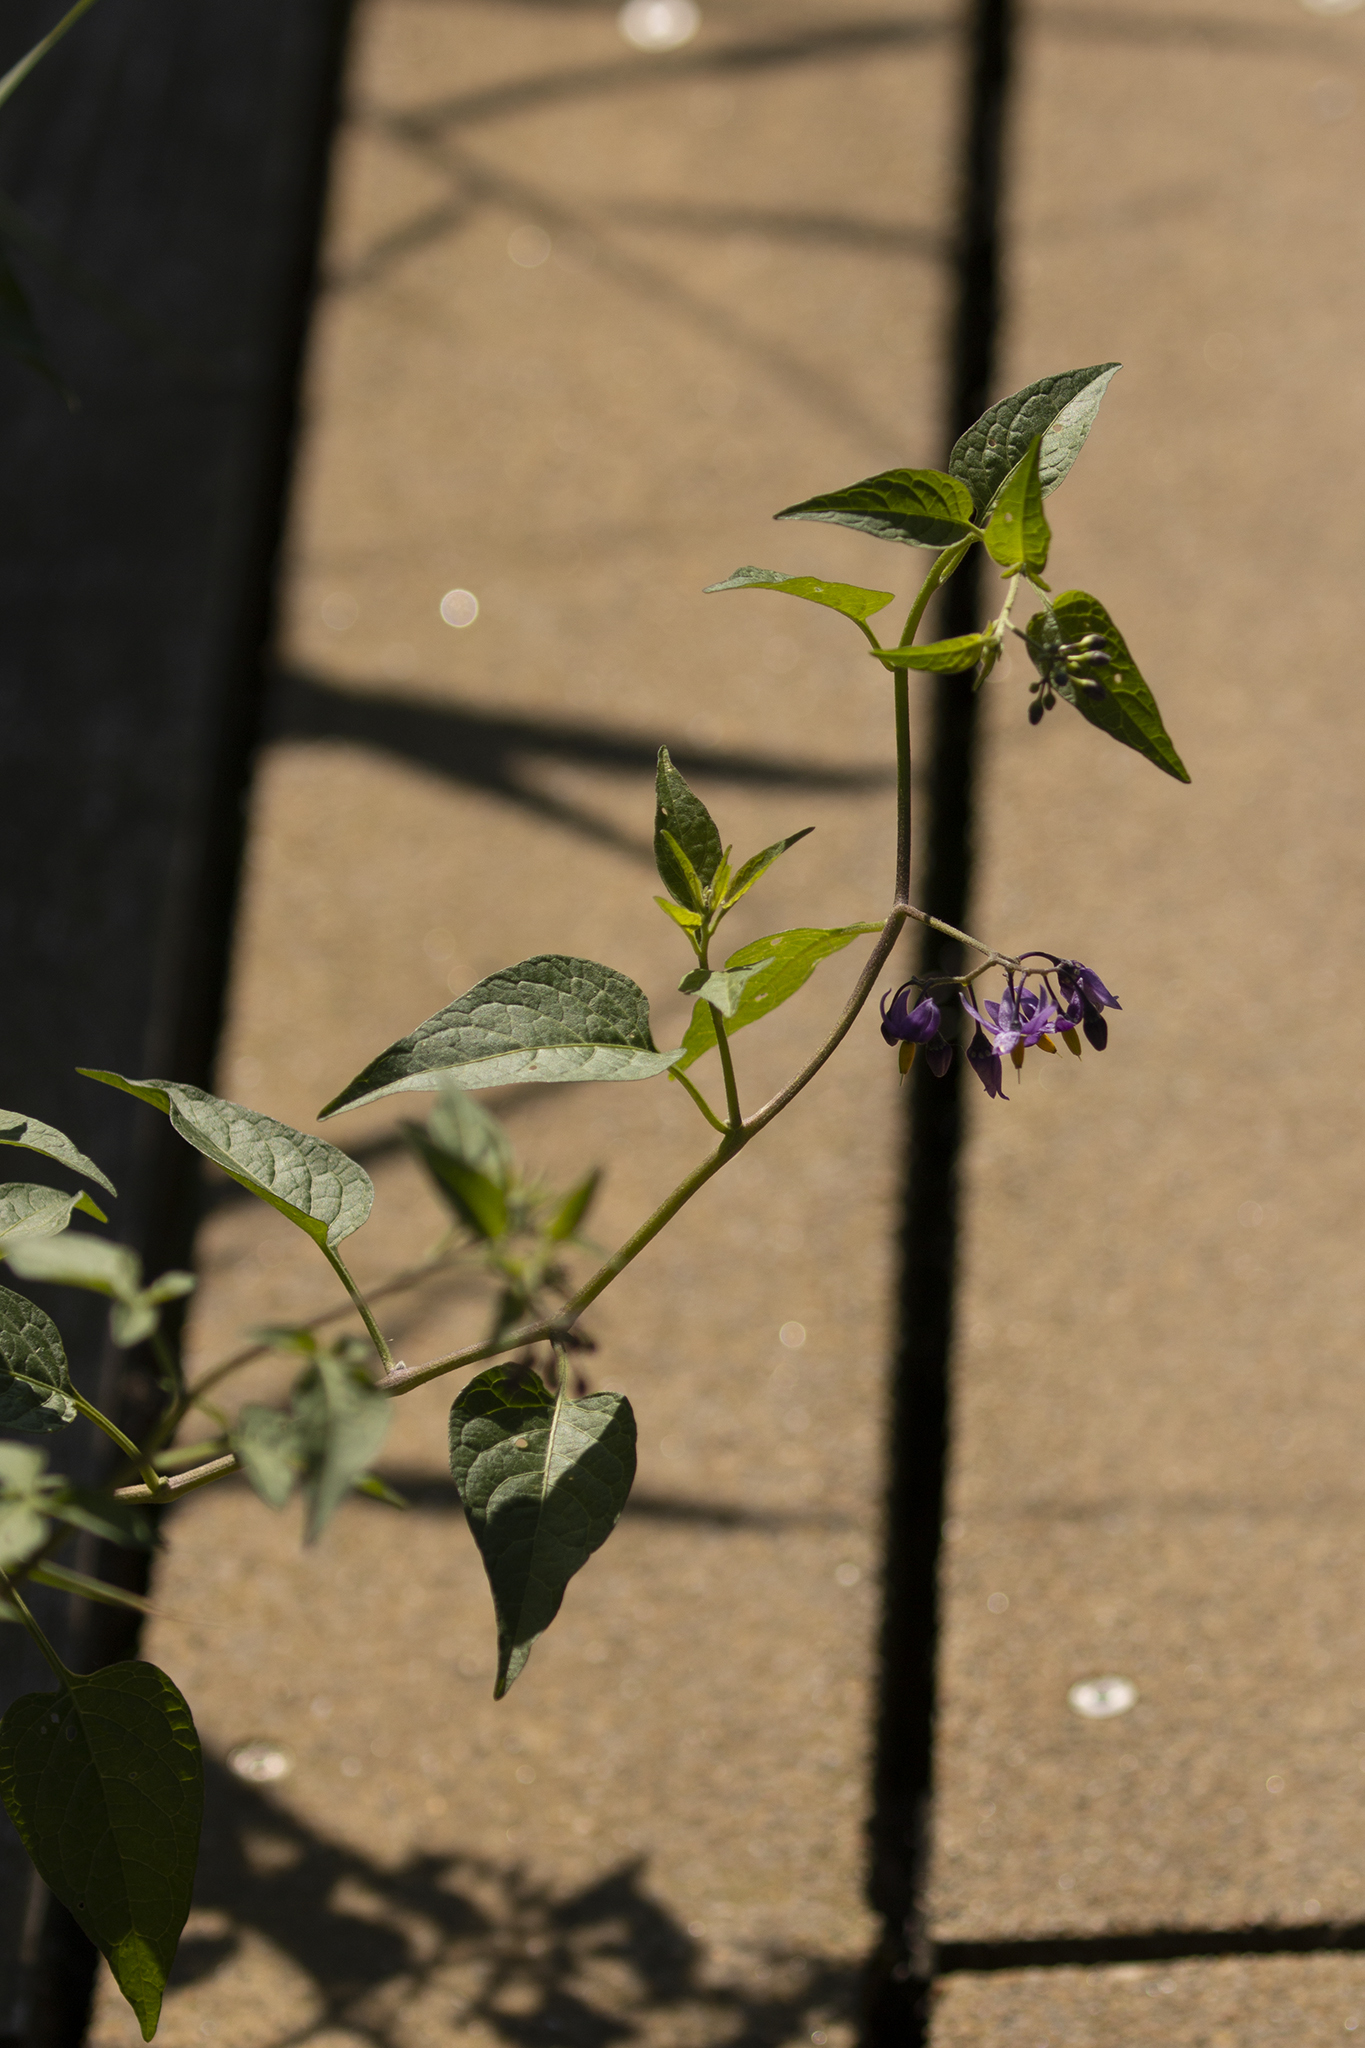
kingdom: Plantae
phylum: Tracheophyta
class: Magnoliopsida
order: Solanales
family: Solanaceae
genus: Solanum
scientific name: Solanum dulcamara
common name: Climbing nightshade
